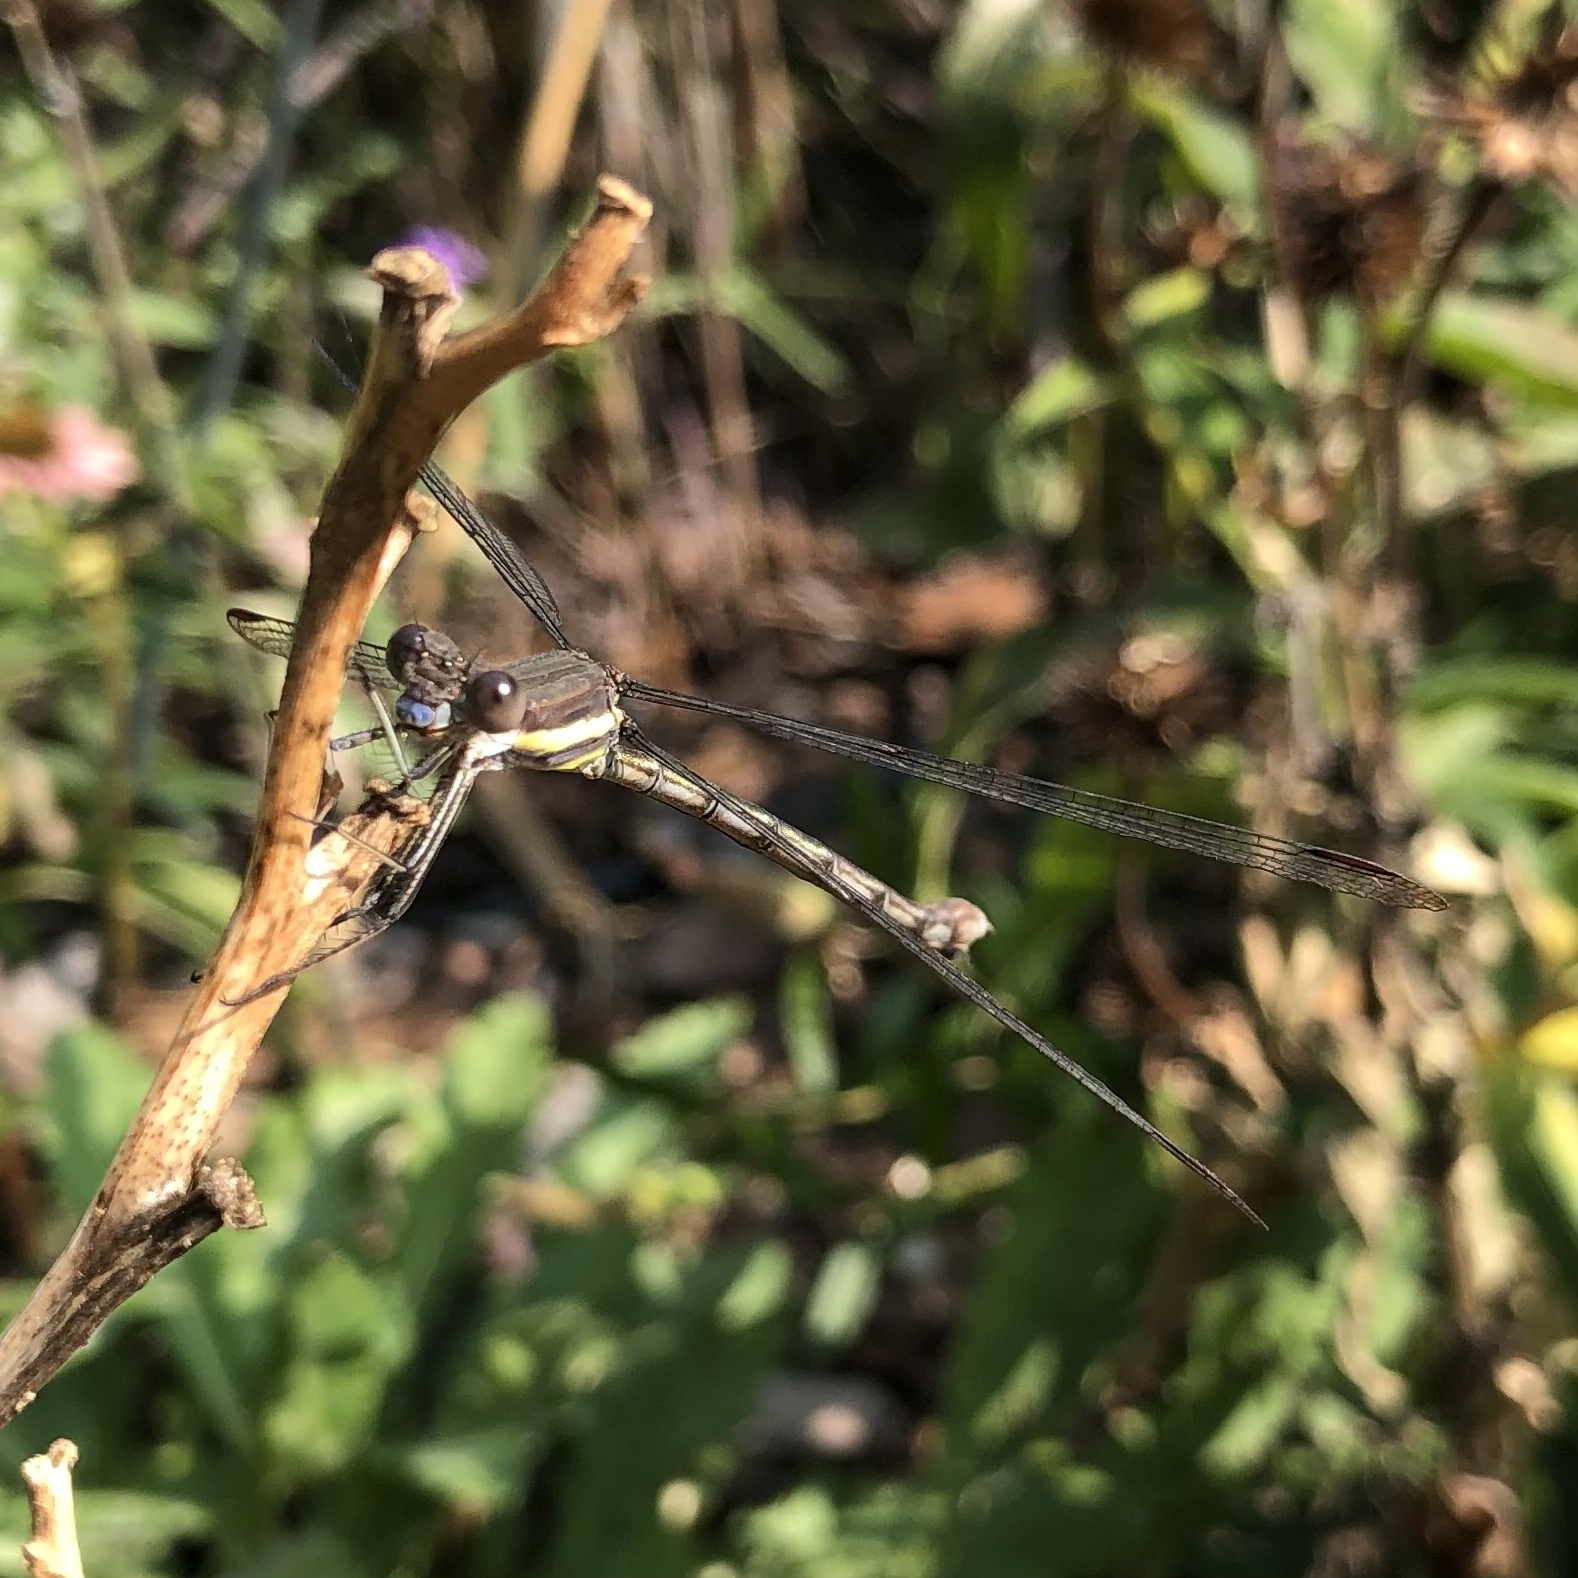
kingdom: Animalia
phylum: Arthropoda
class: Insecta
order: Odonata
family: Lestidae
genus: Archilestes
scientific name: Archilestes grandis
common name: Great spreadwing
